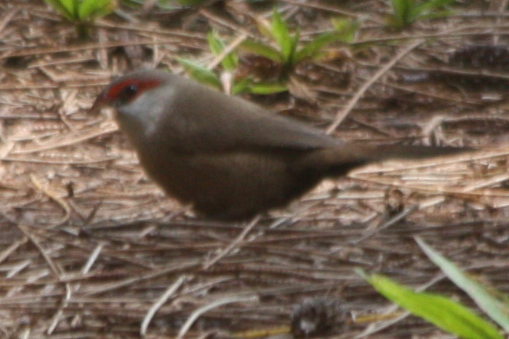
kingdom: Animalia
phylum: Chordata
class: Aves
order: Passeriformes
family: Estrildidae
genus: Estrilda
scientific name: Estrilda astrild
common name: Common waxbill
